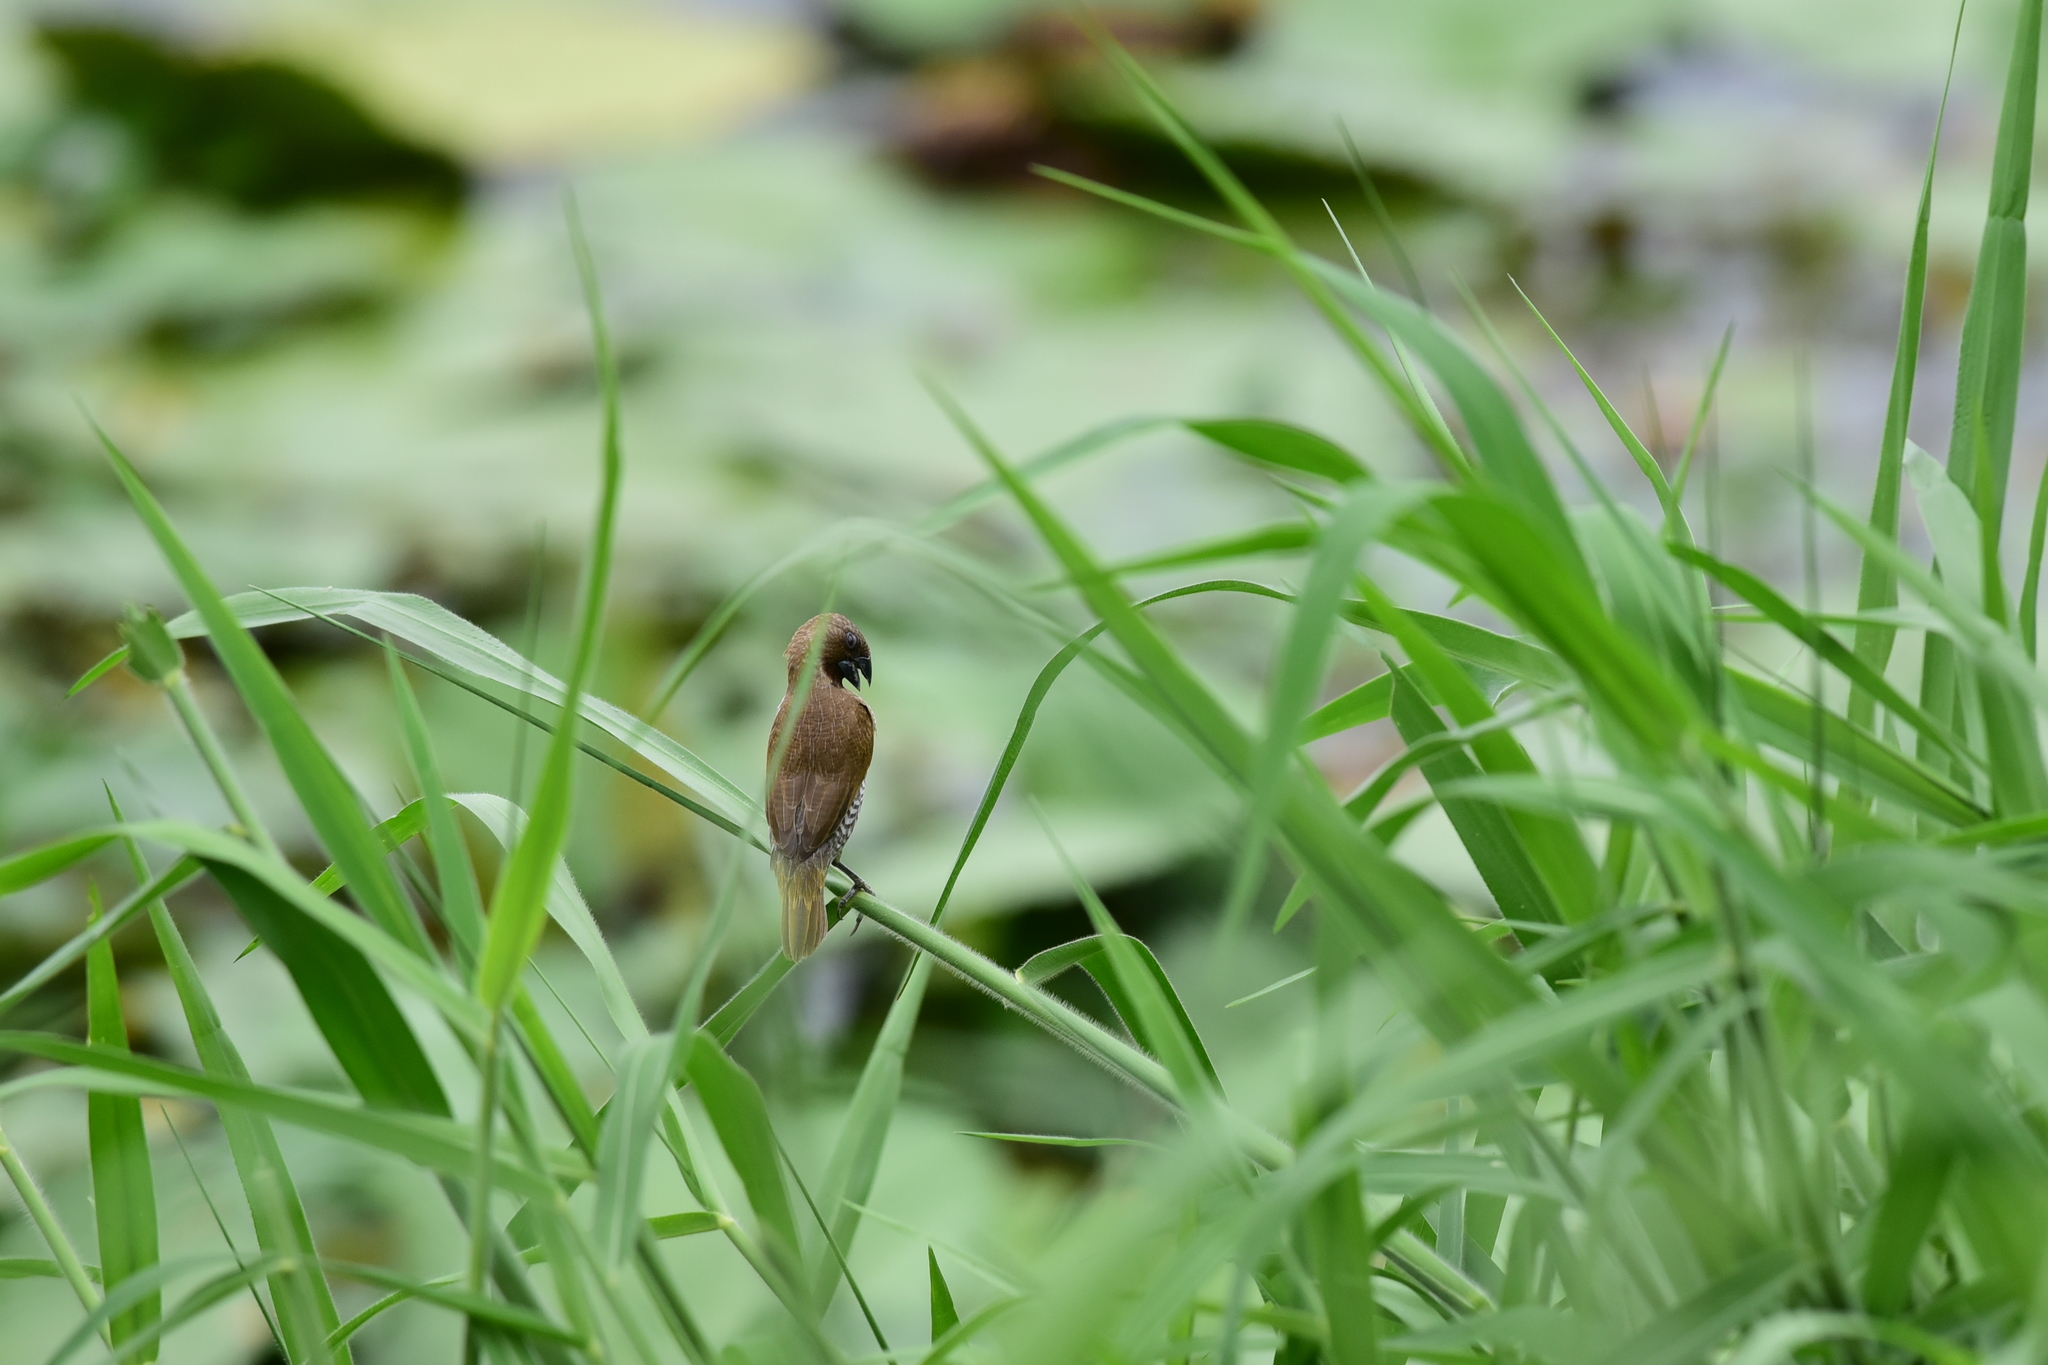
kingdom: Animalia
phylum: Chordata
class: Aves
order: Passeriformes
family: Estrildidae
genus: Lonchura
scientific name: Lonchura punctulata
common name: Scaly-breasted munia
